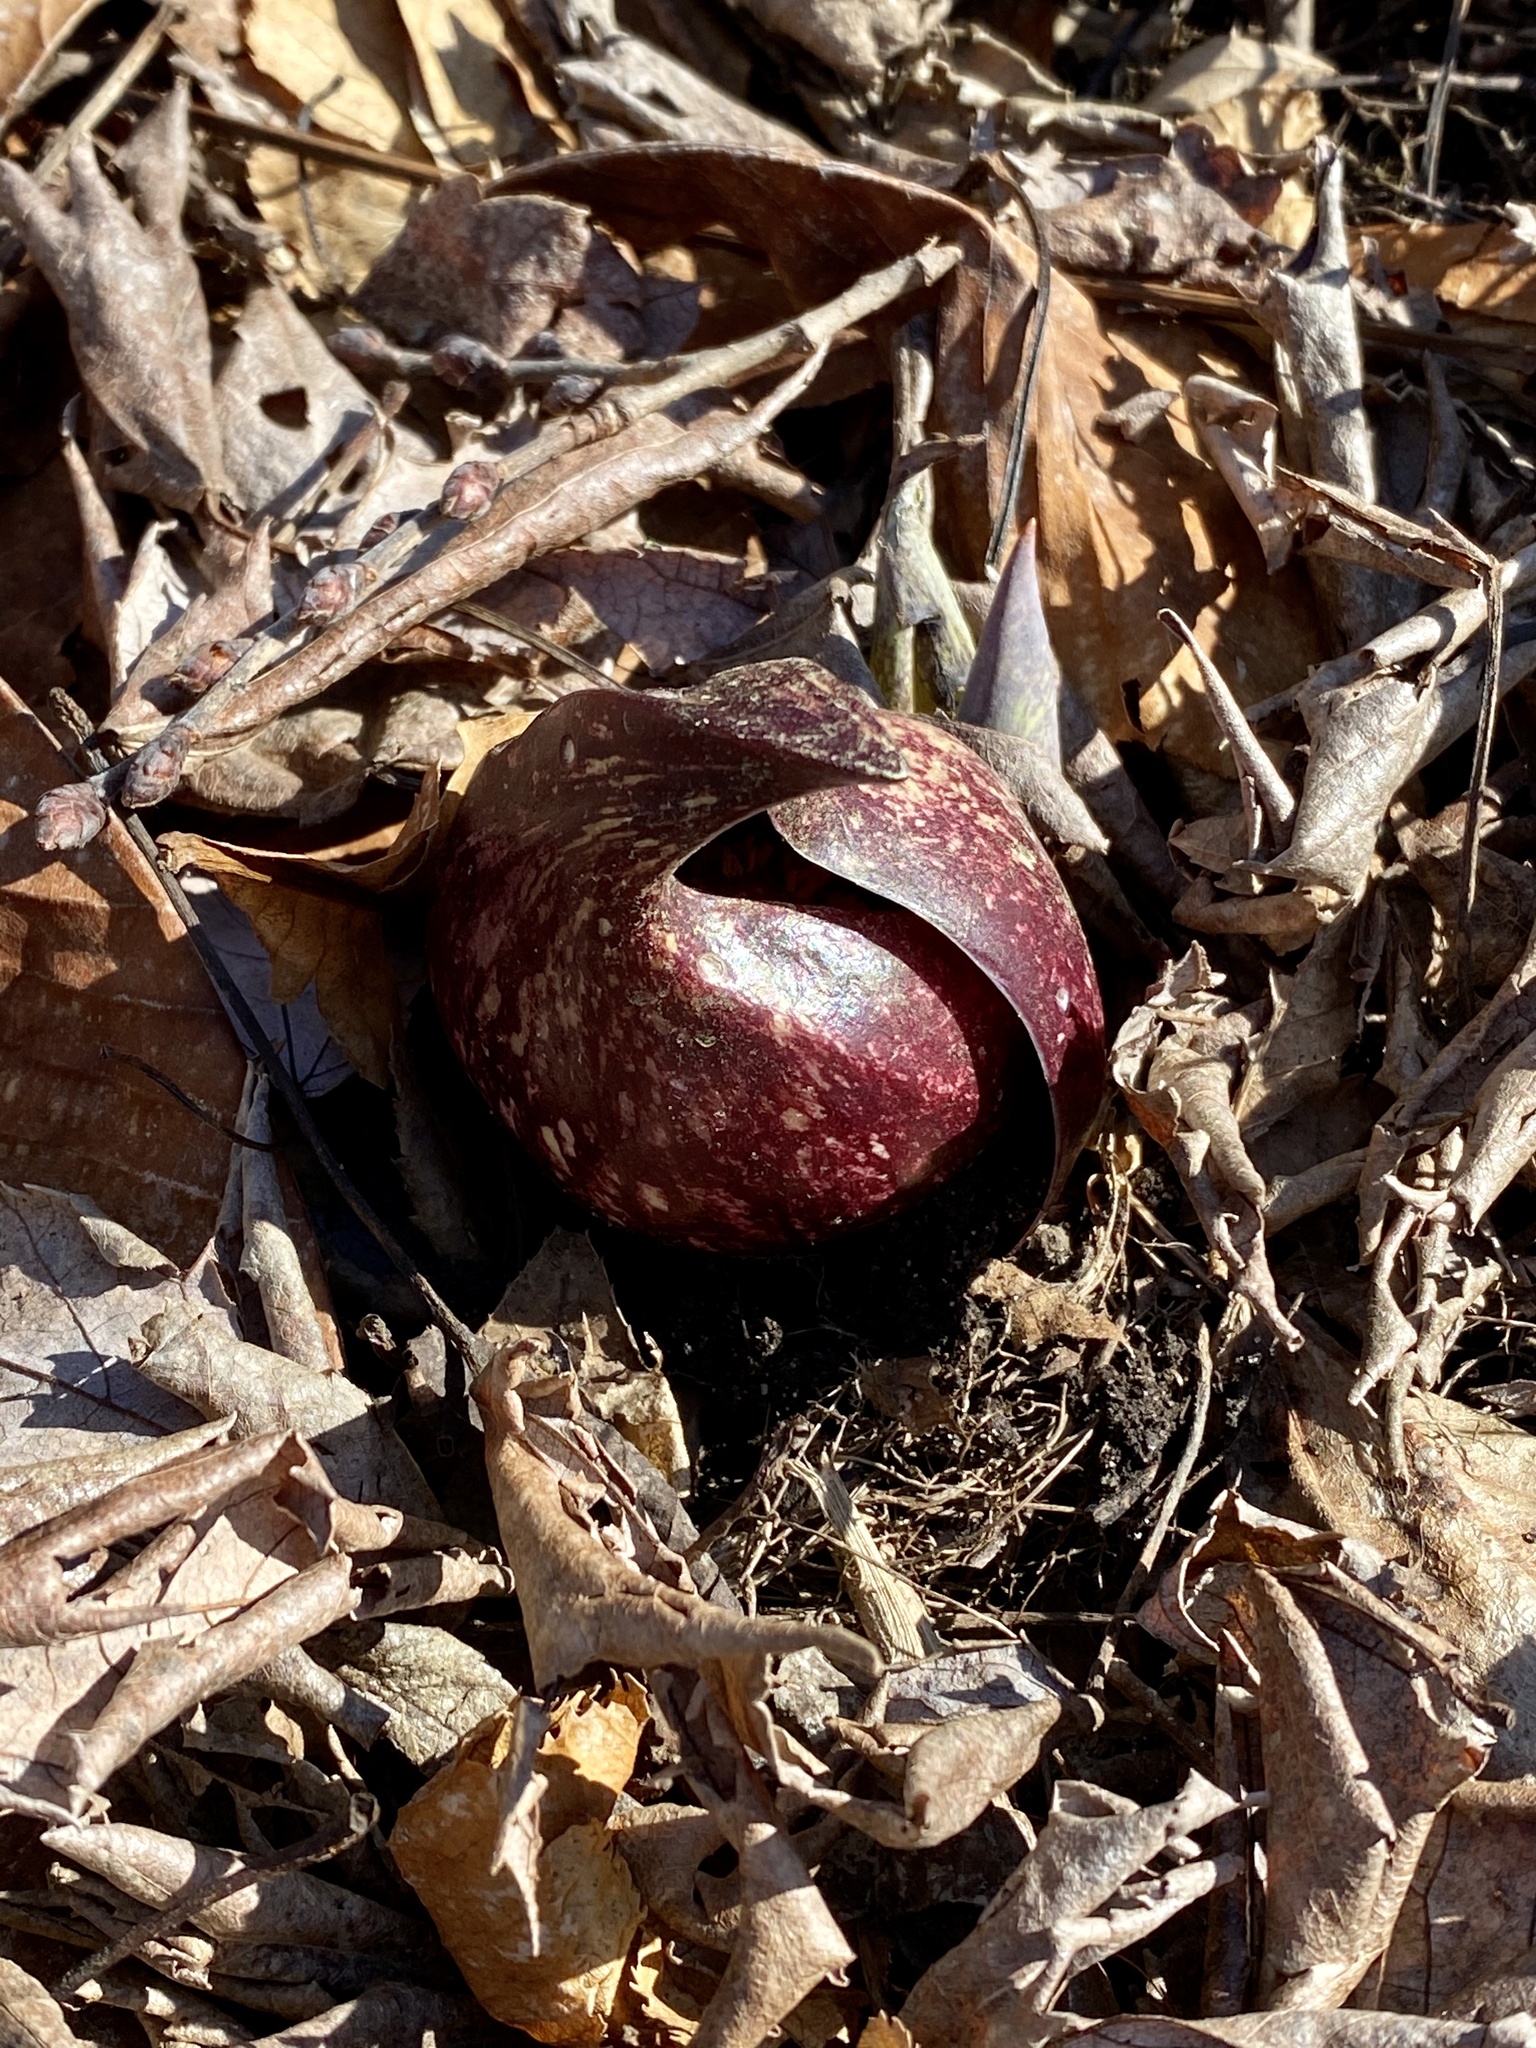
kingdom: Plantae
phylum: Tracheophyta
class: Liliopsida
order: Alismatales
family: Araceae
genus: Symplocarpus
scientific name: Symplocarpus foetidus
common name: Eastern skunk cabbage
